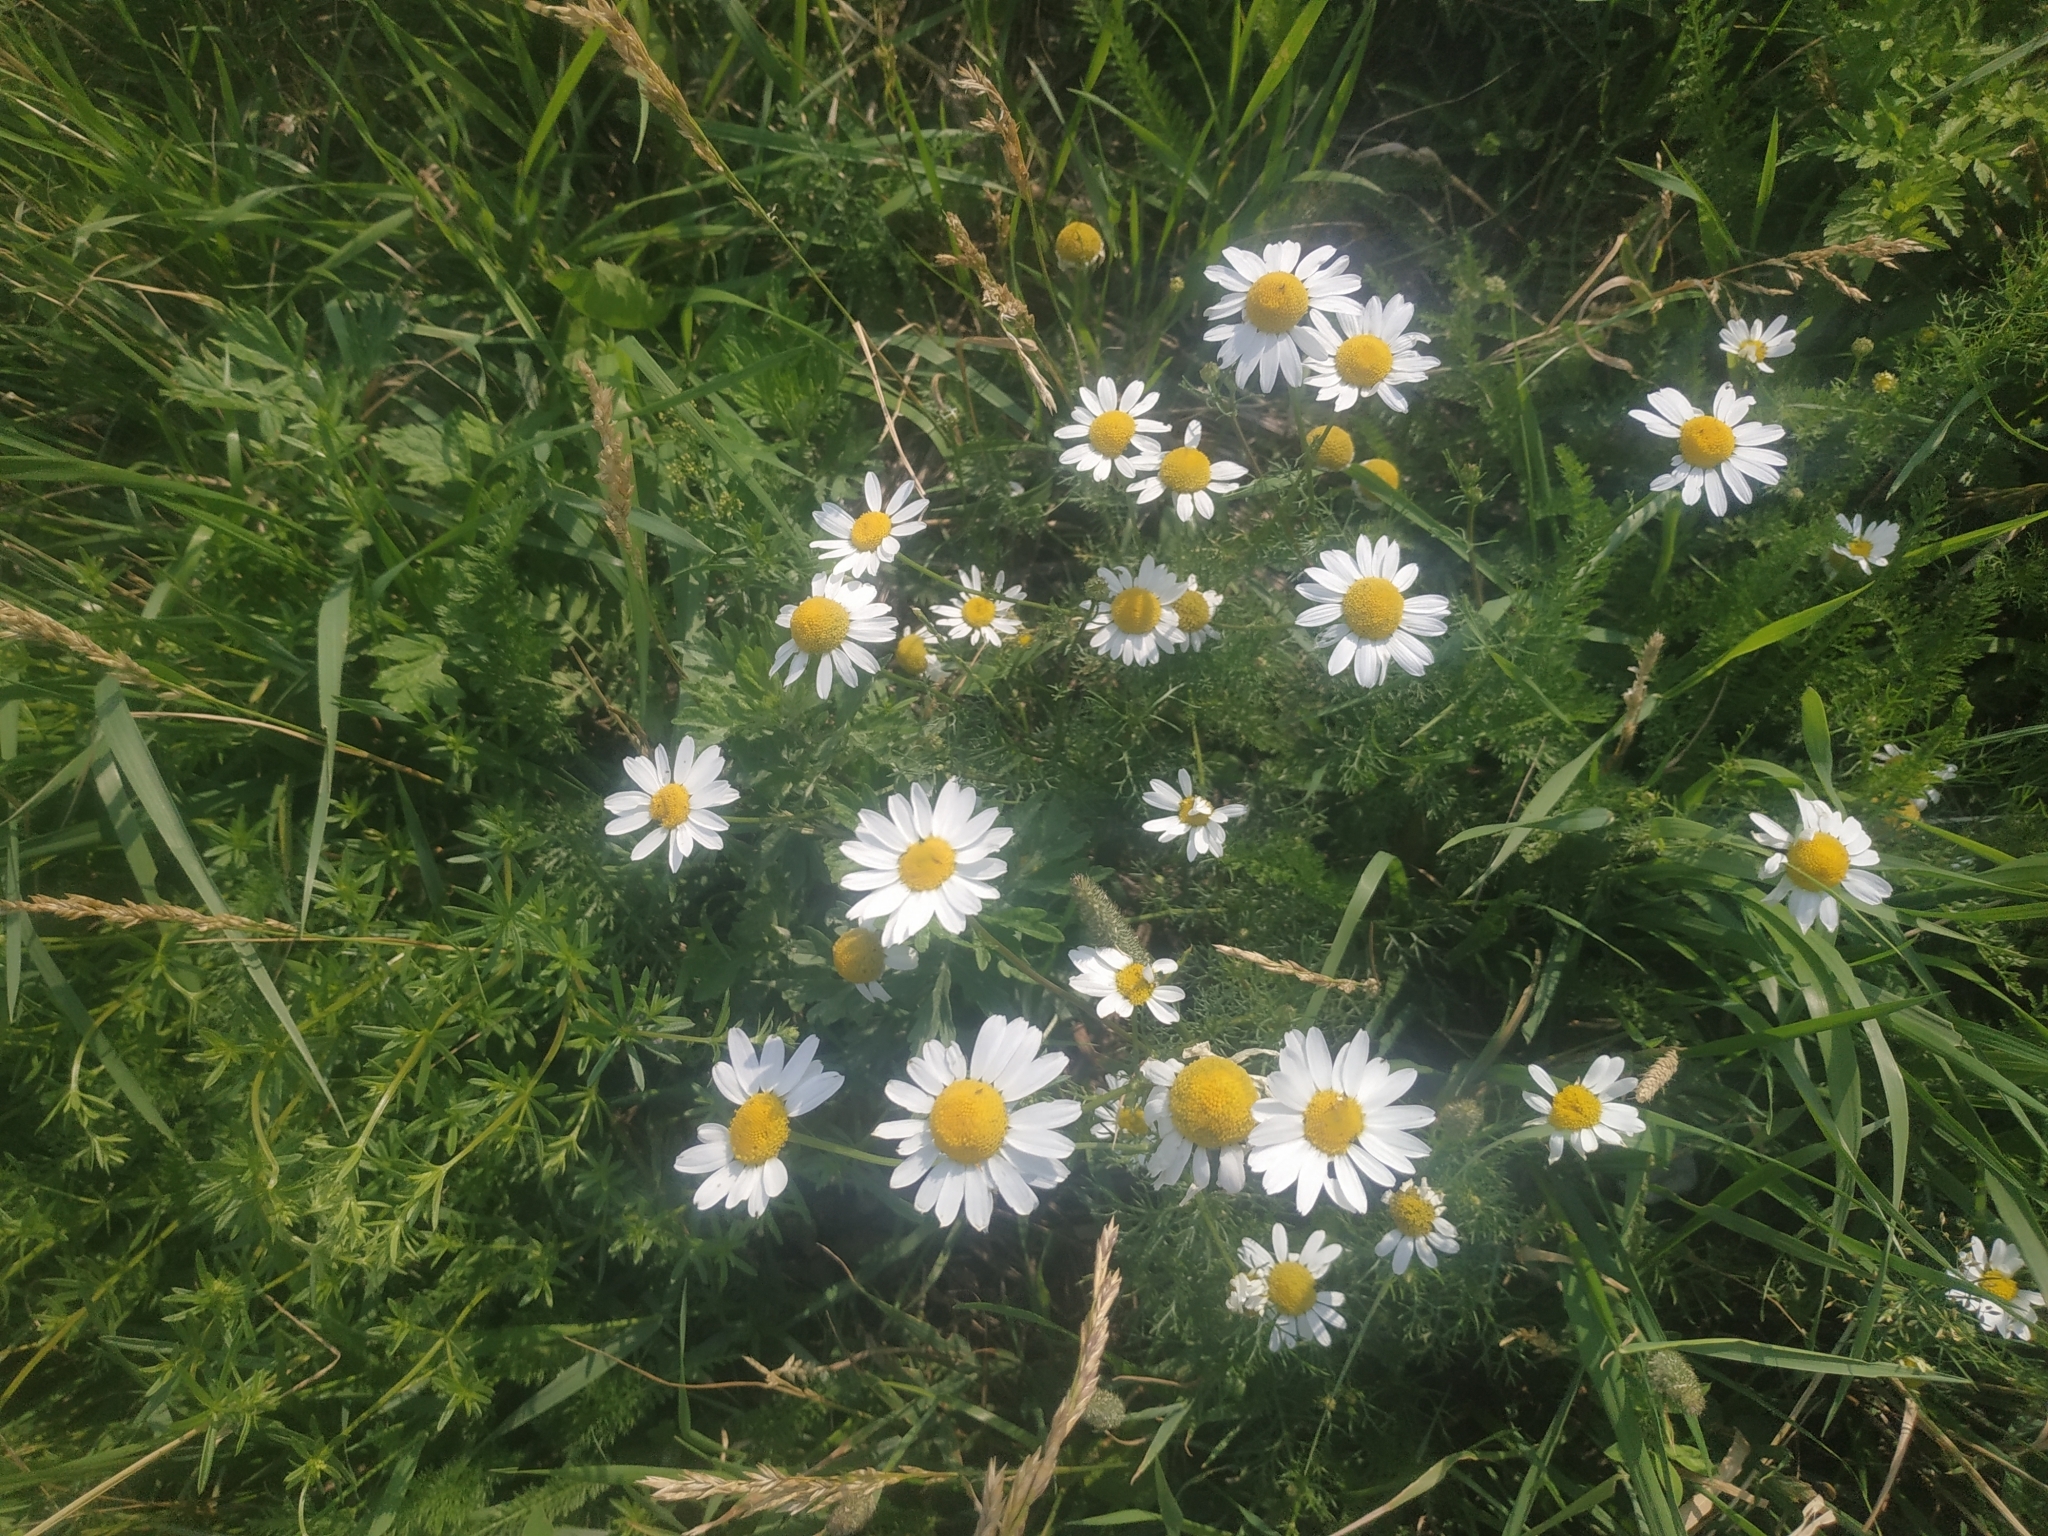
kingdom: Plantae
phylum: Tracheophyta
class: Magnoliopsida
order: Asterales
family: Asteraceae
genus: Tripleurospermum
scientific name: Tripleurospermum inodorum
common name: Scentless mayweed
